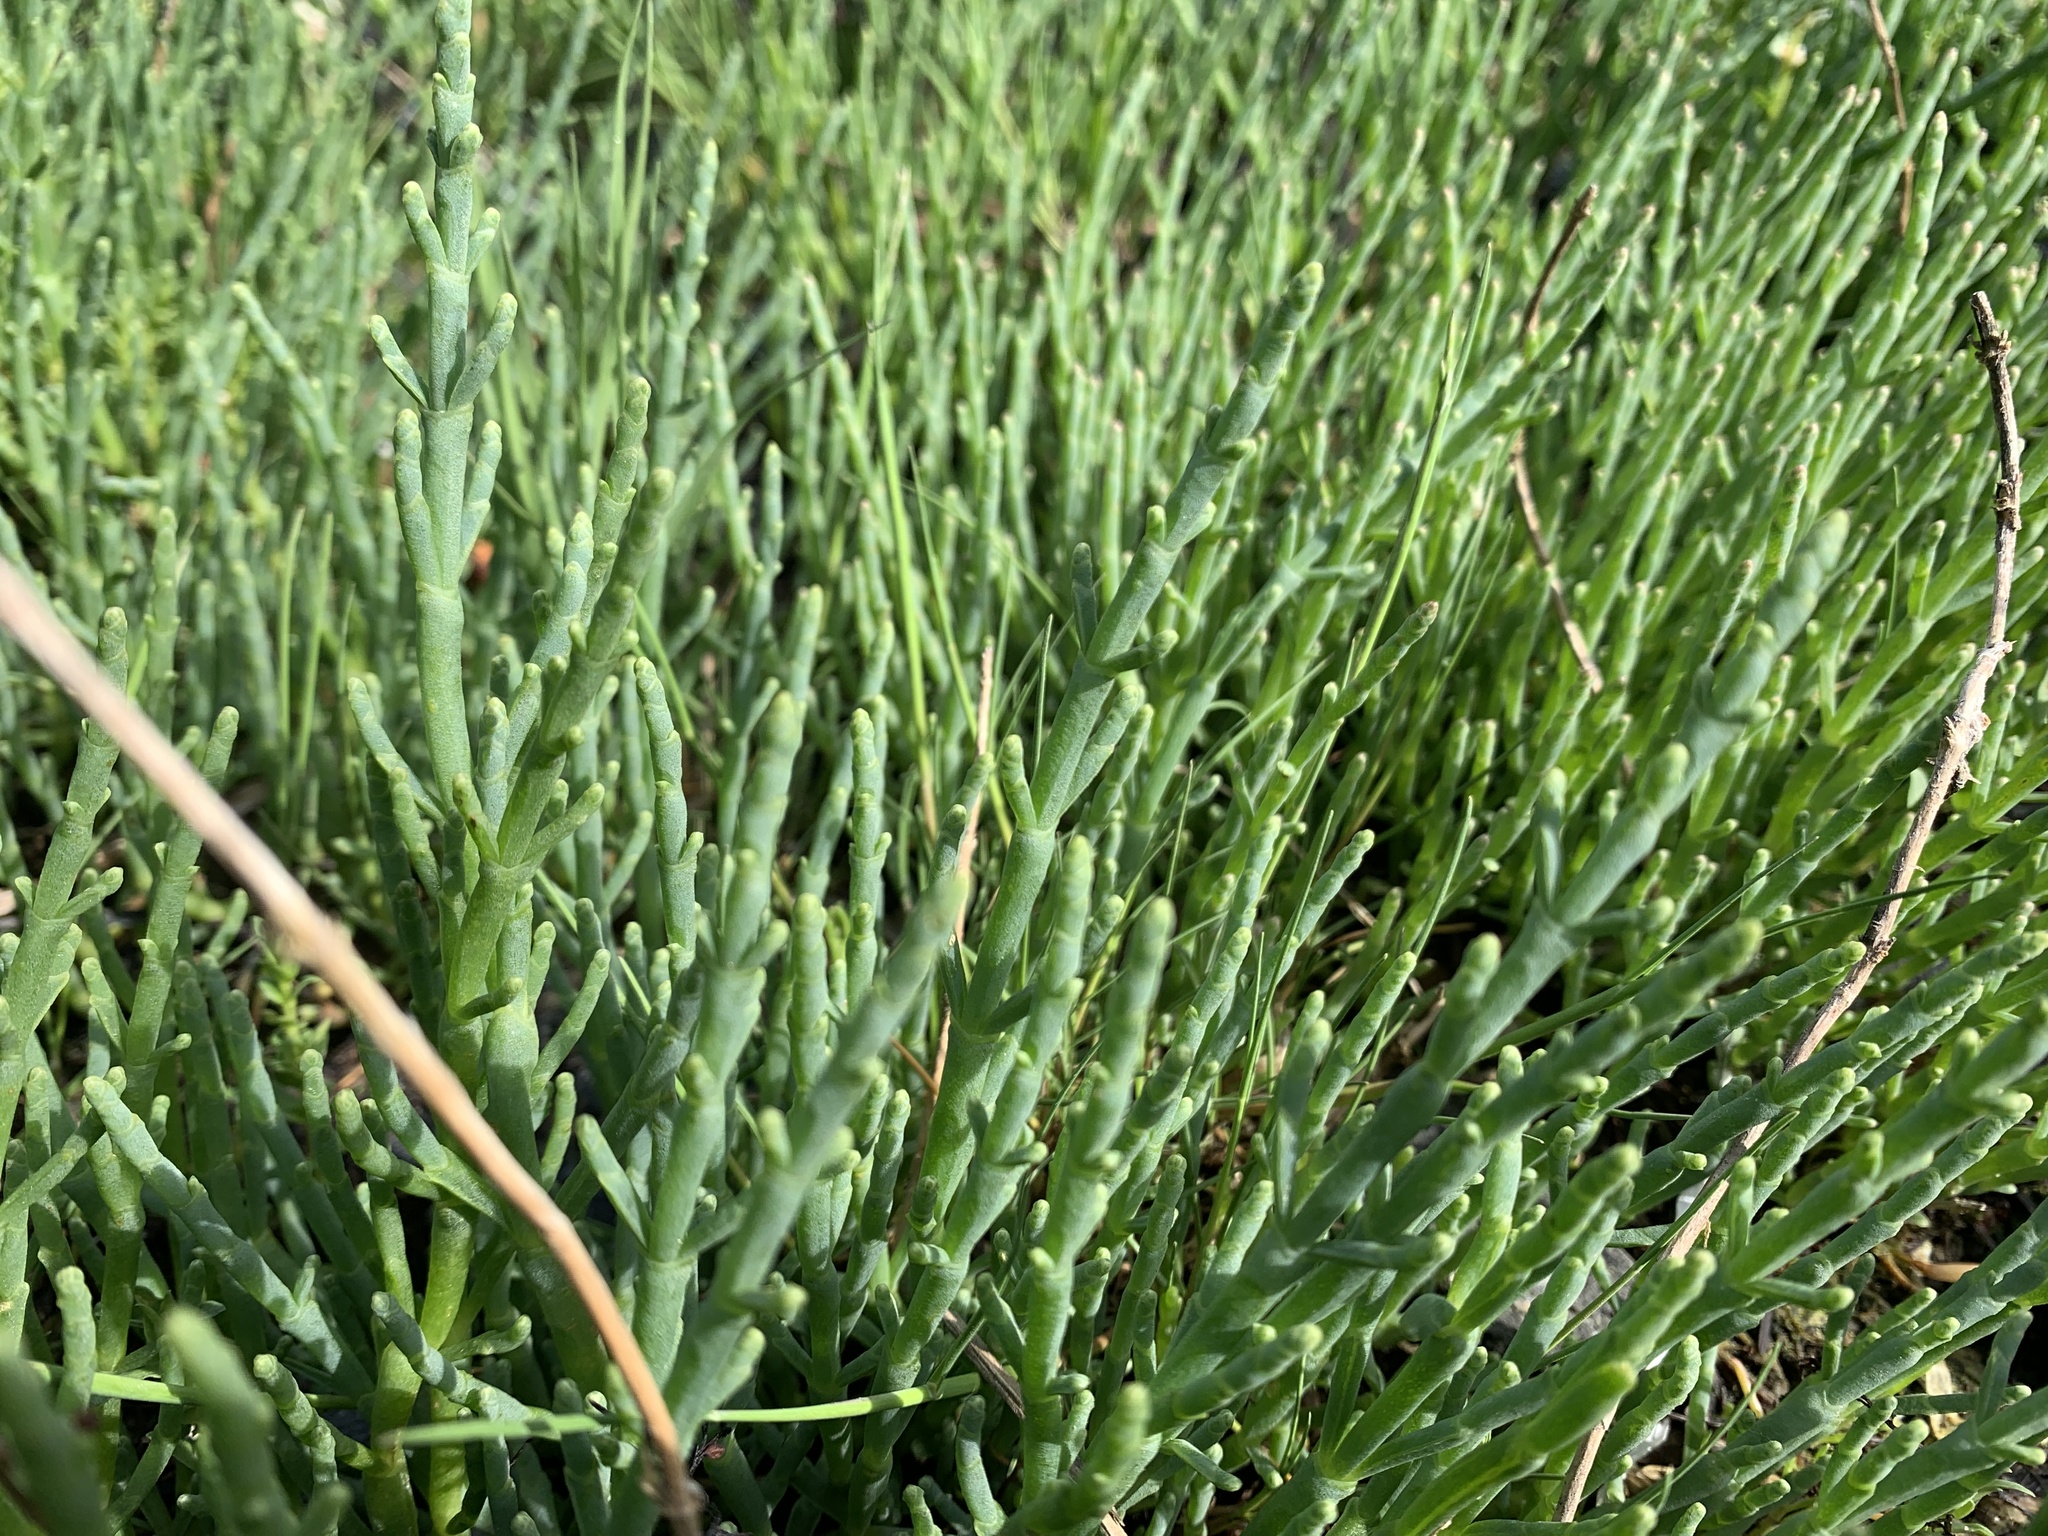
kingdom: Plantae
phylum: Tracheophyta
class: Magnoliopsida
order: Caryophyllales
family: Amaranthaceae
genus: Salicornia
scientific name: Salicornia pacifica
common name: Pacific glasswort
